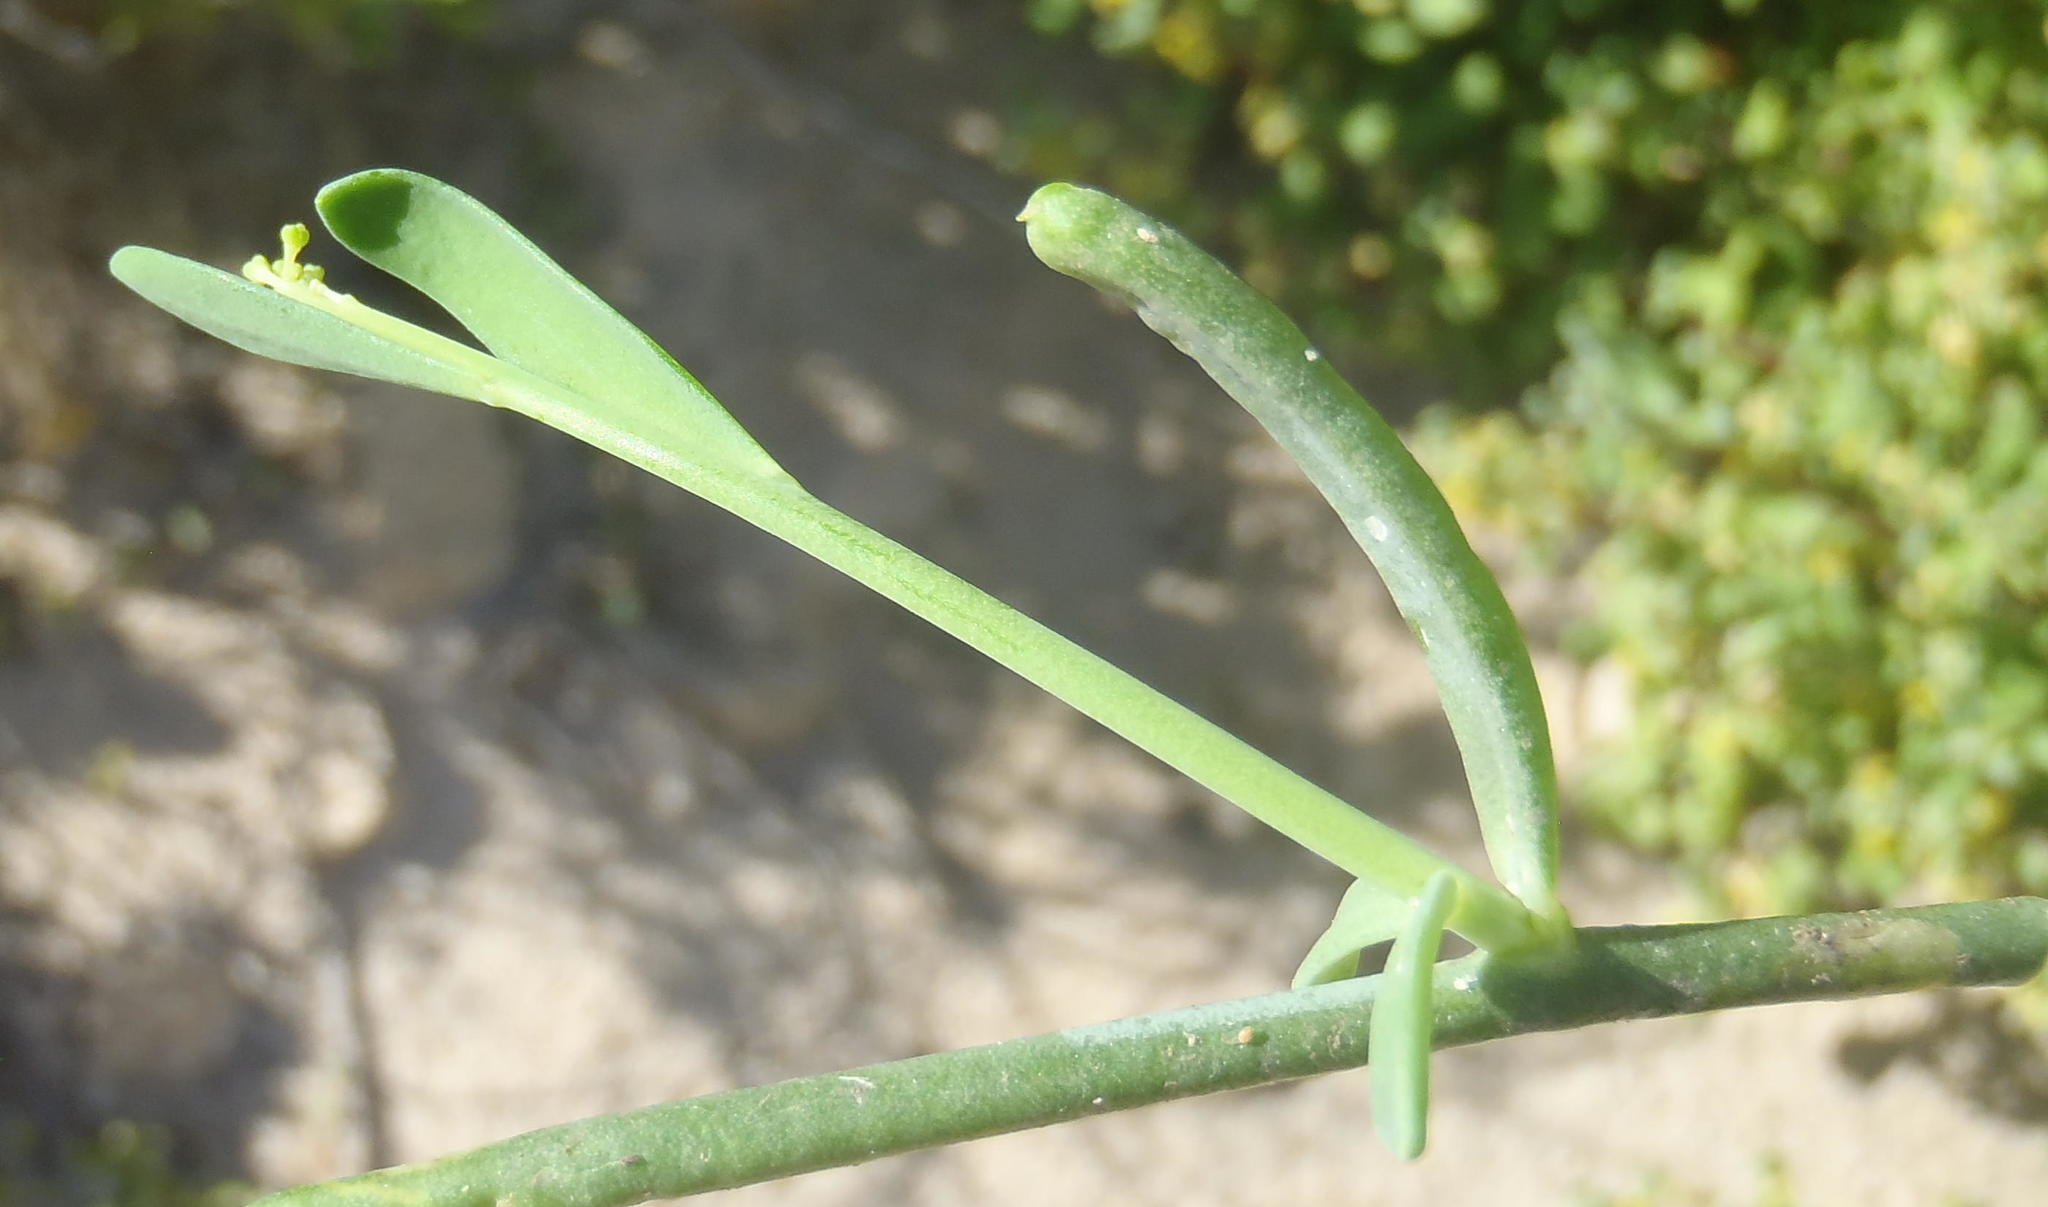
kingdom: Plantae
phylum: Tracheophyta
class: Magnoliopsida
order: Brassicales
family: Brassicaceae
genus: Heliophila
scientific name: Heliophila linearis
